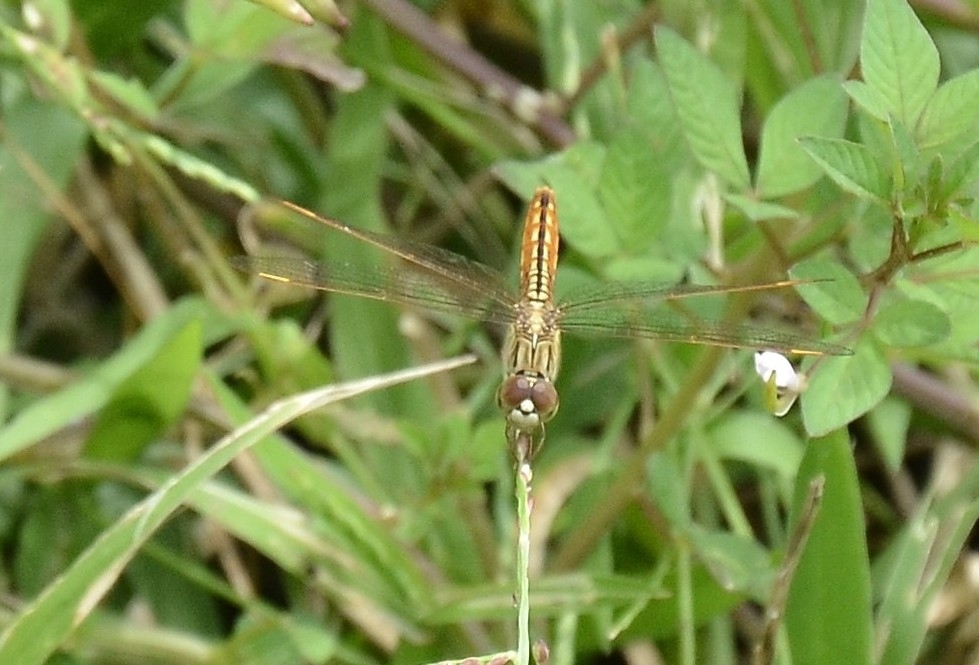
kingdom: Animalia
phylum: Arthropoda
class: Insecta
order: Odonata
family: Libellulidae
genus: Brachythemis
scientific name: Brachythemis contaminata
